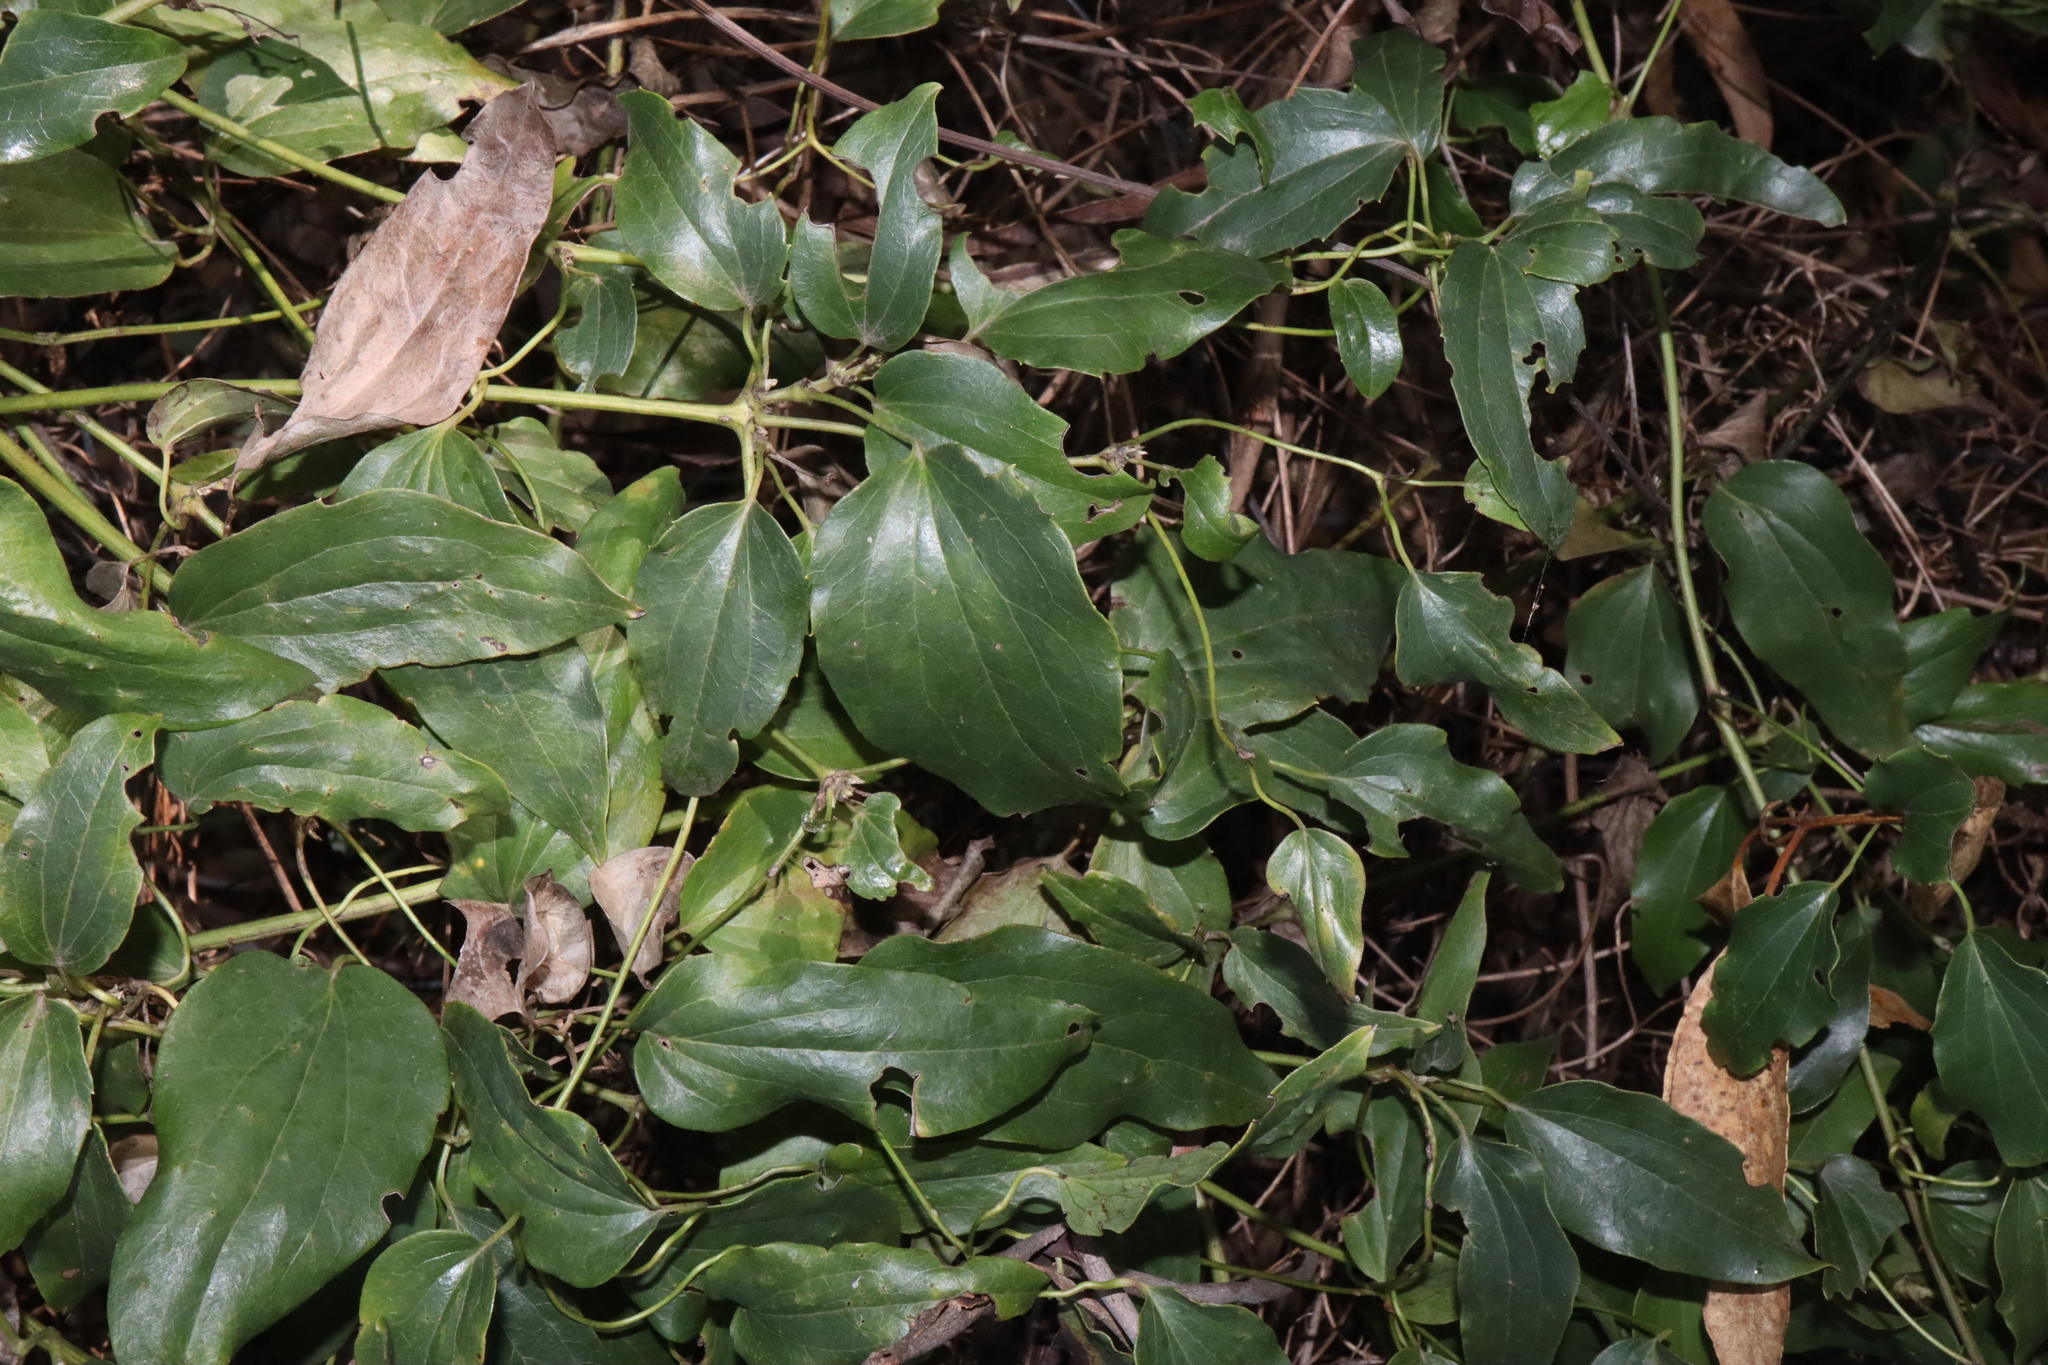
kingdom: Plantae
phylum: Tracheophyta
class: Magnoliopsida
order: Ranunculales
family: Ranunculaceae
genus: Clematis
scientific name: Clematis glycinoides
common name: Forest clematis
